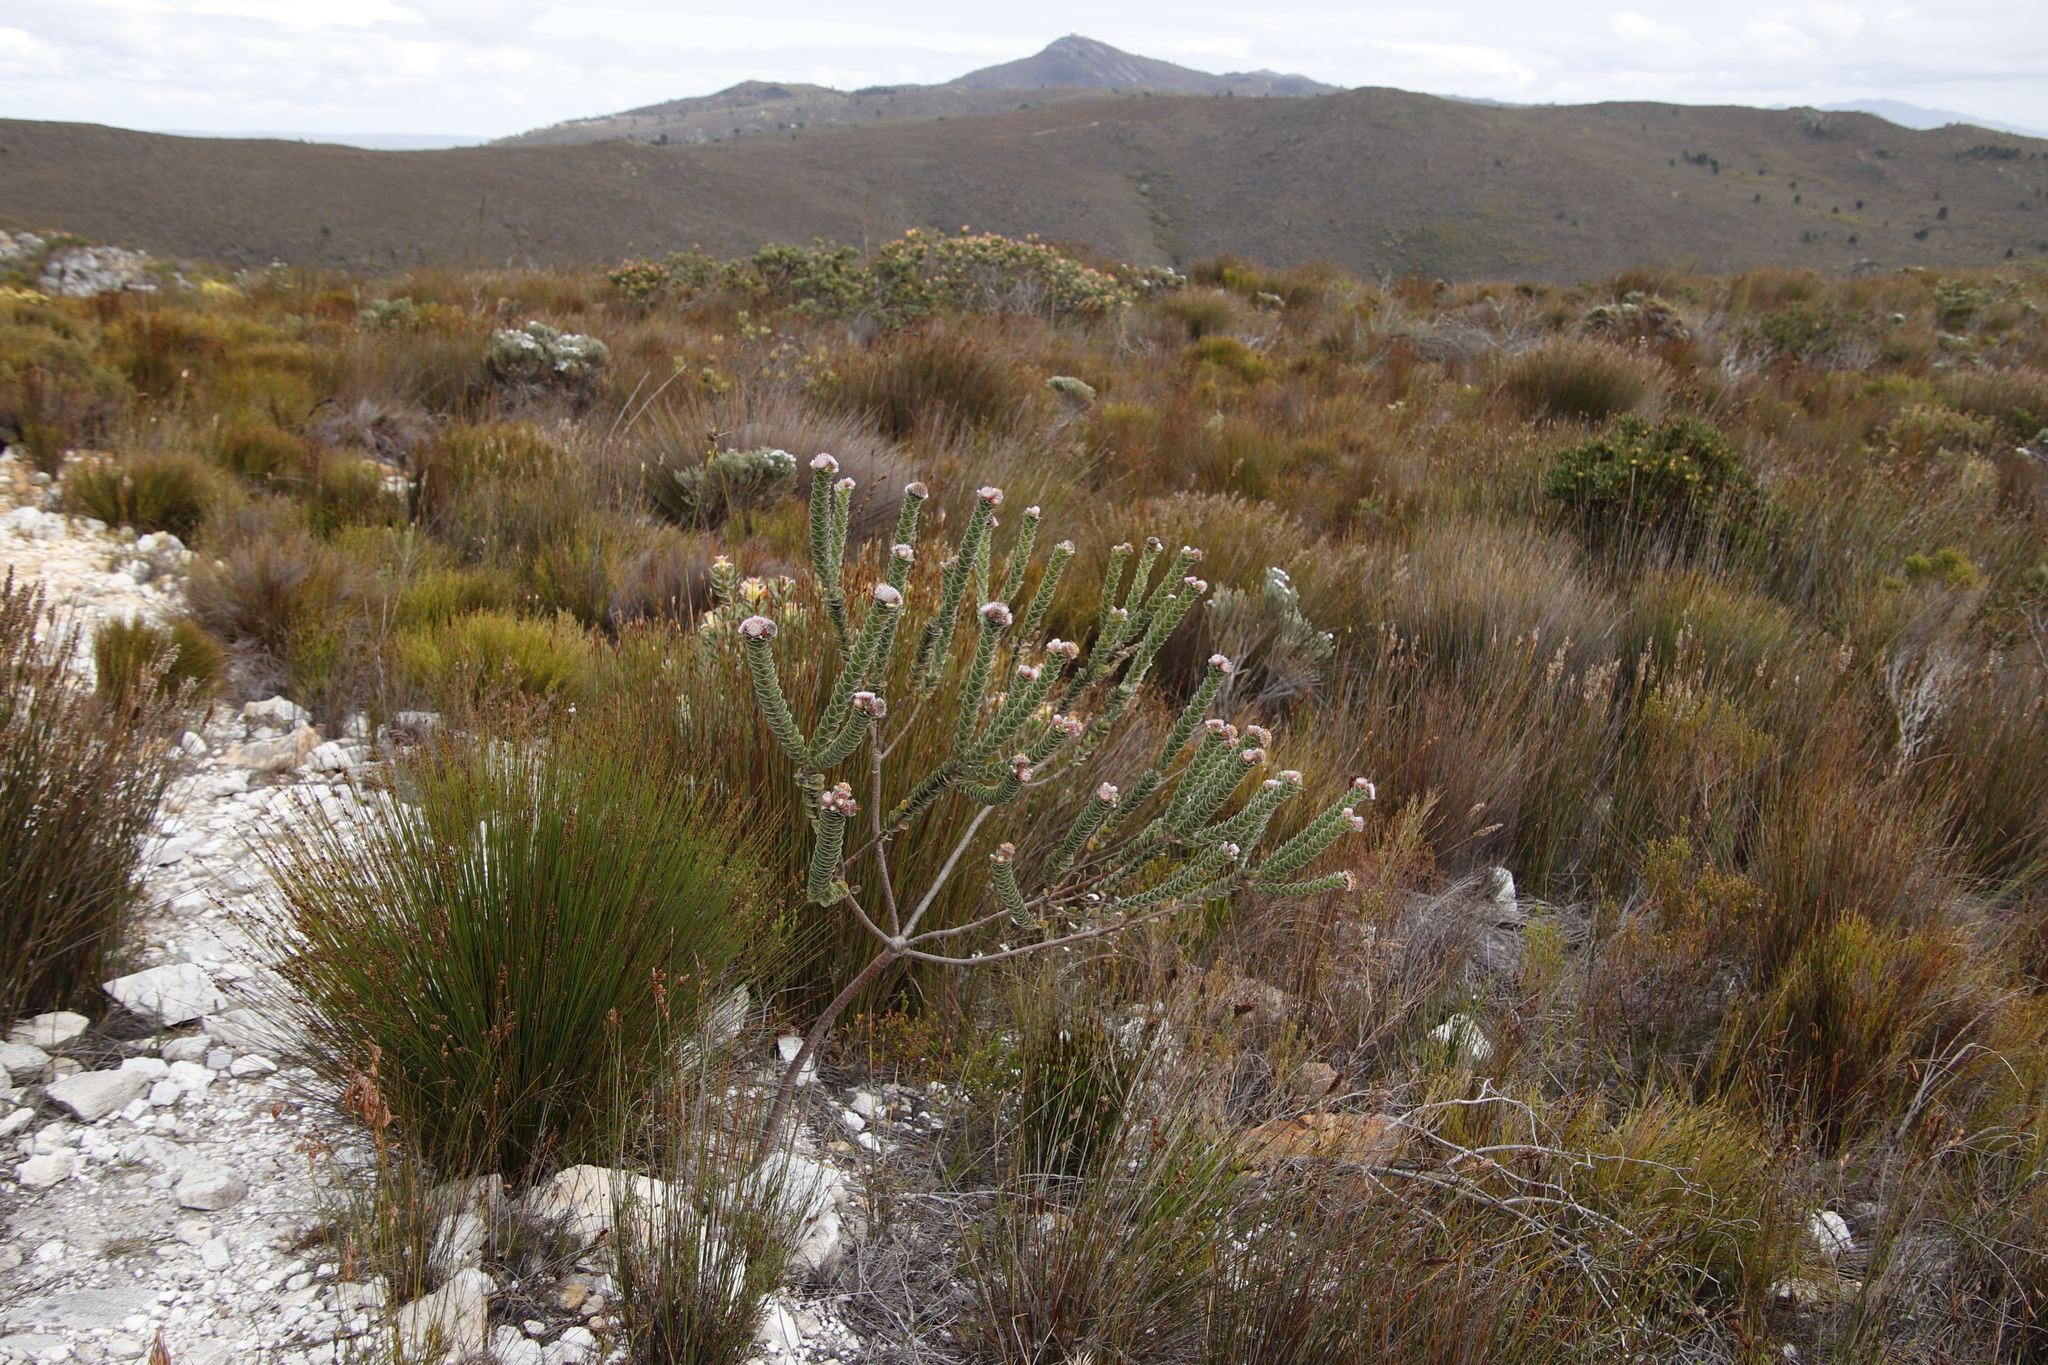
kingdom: Plantae
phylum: Tracheophyta
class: Magnoliopsida
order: Proteales
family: Proteaceae
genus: Leucospermum
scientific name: Leucospermum truncatulum
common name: Oval-leaf pincushion
